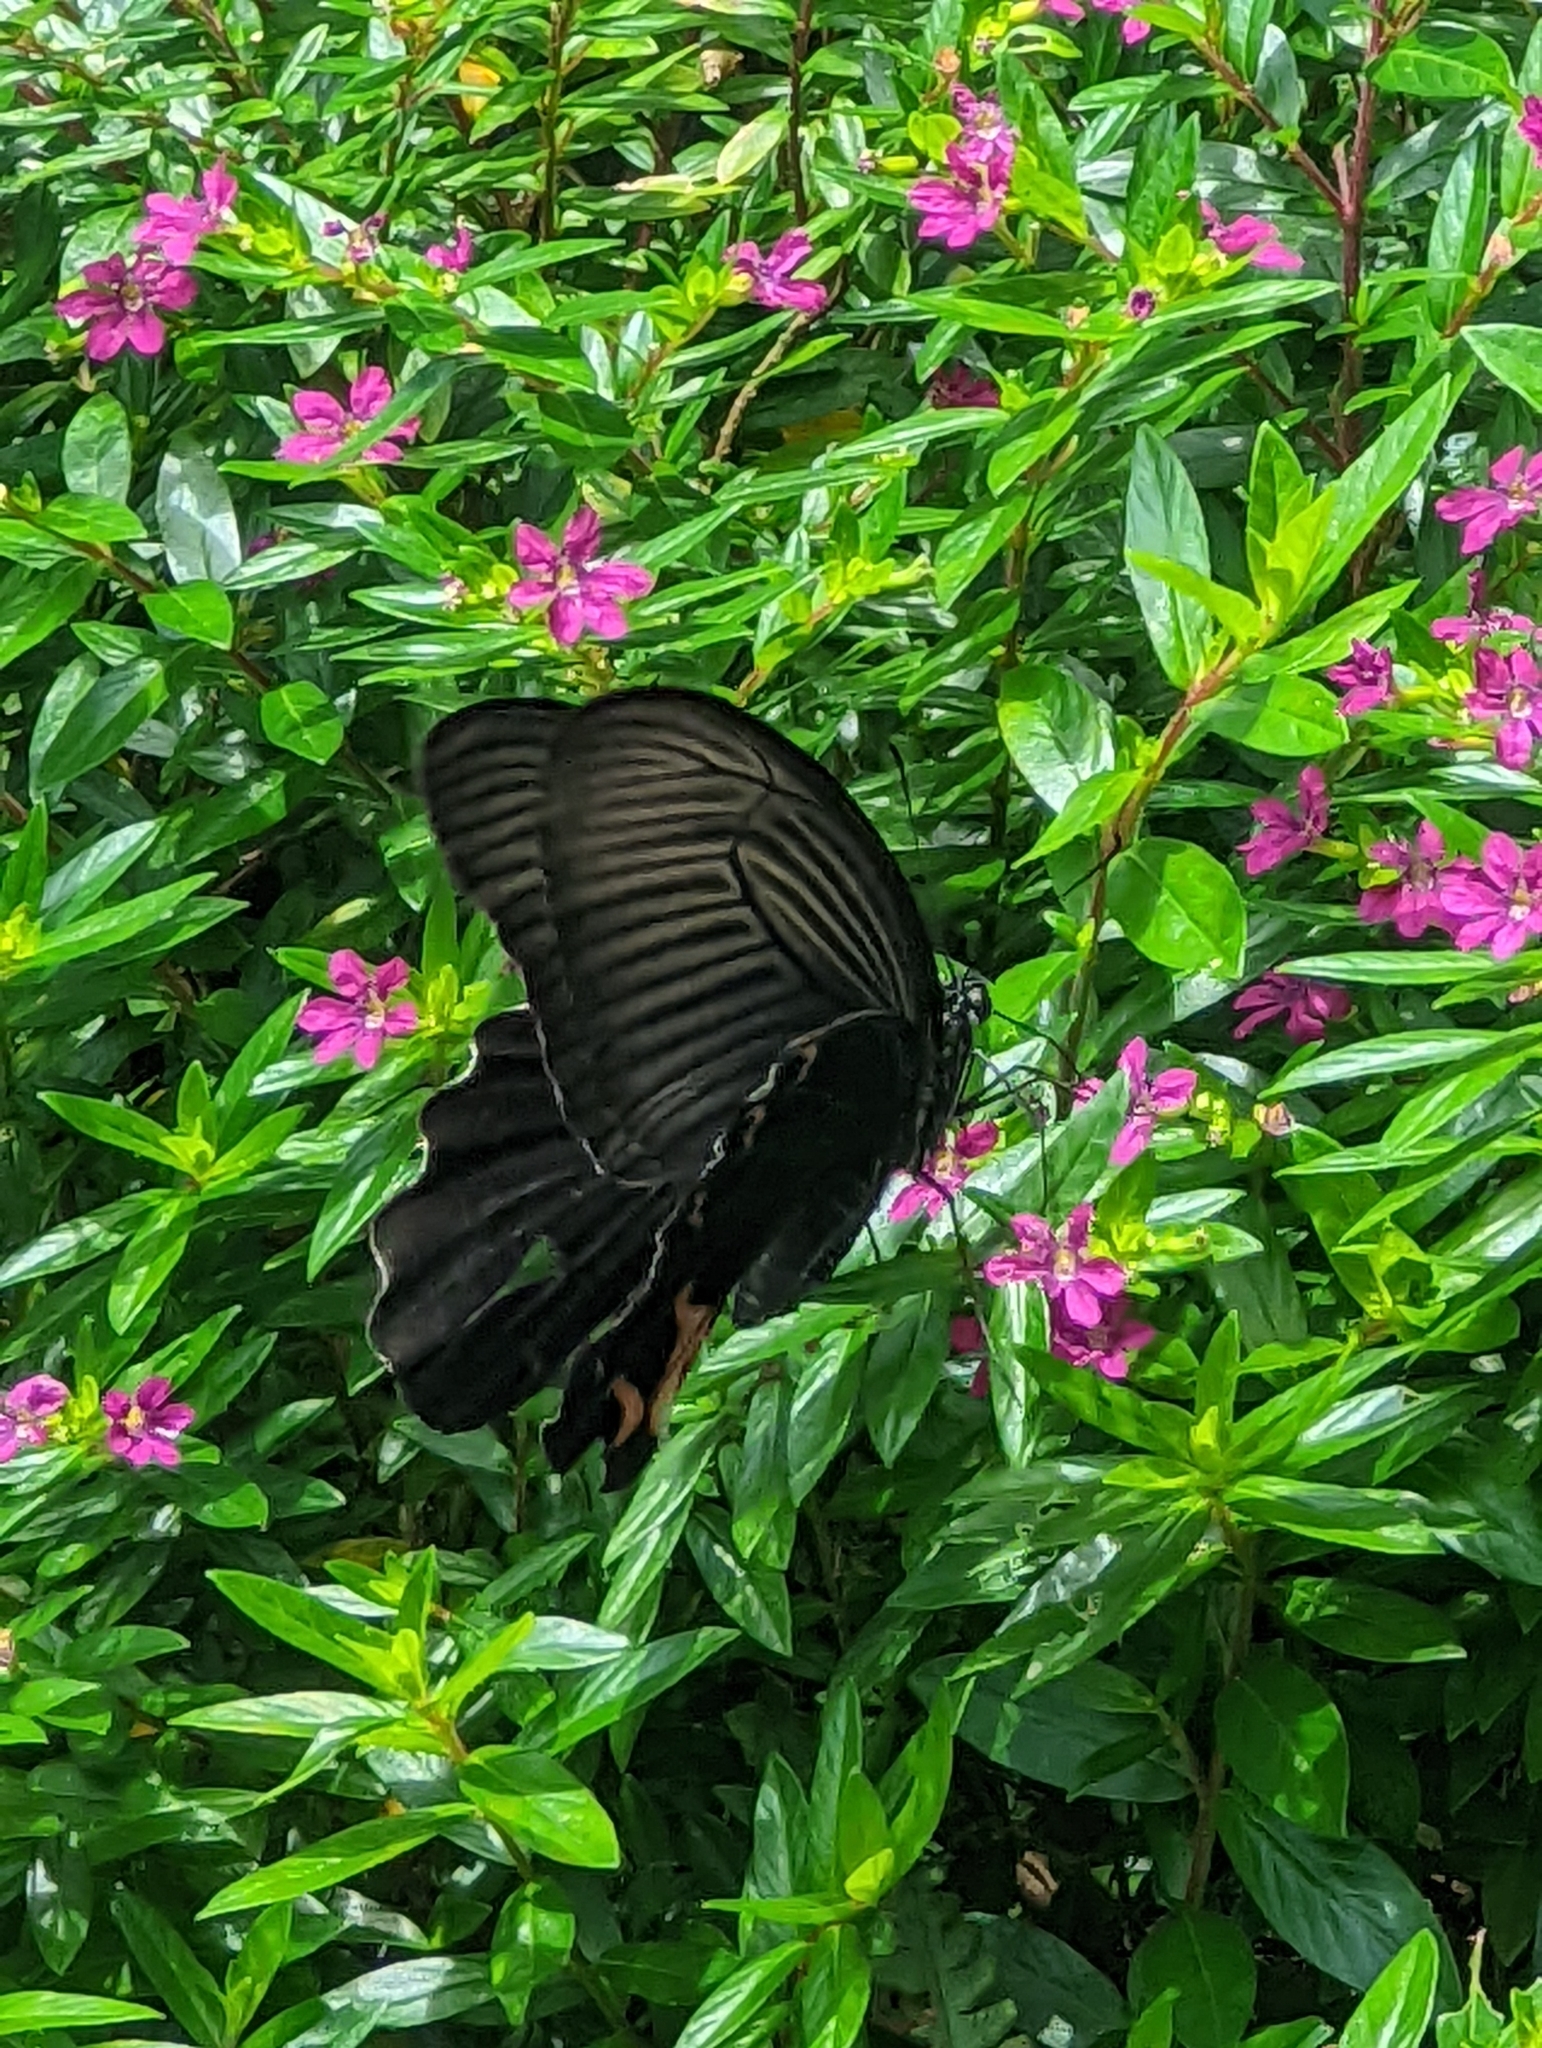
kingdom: Animalia
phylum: Arthropoda
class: Insecta
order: Lepidoptera
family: Papilionidae
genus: Papilio
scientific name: Papilio protenor
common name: Spangle
